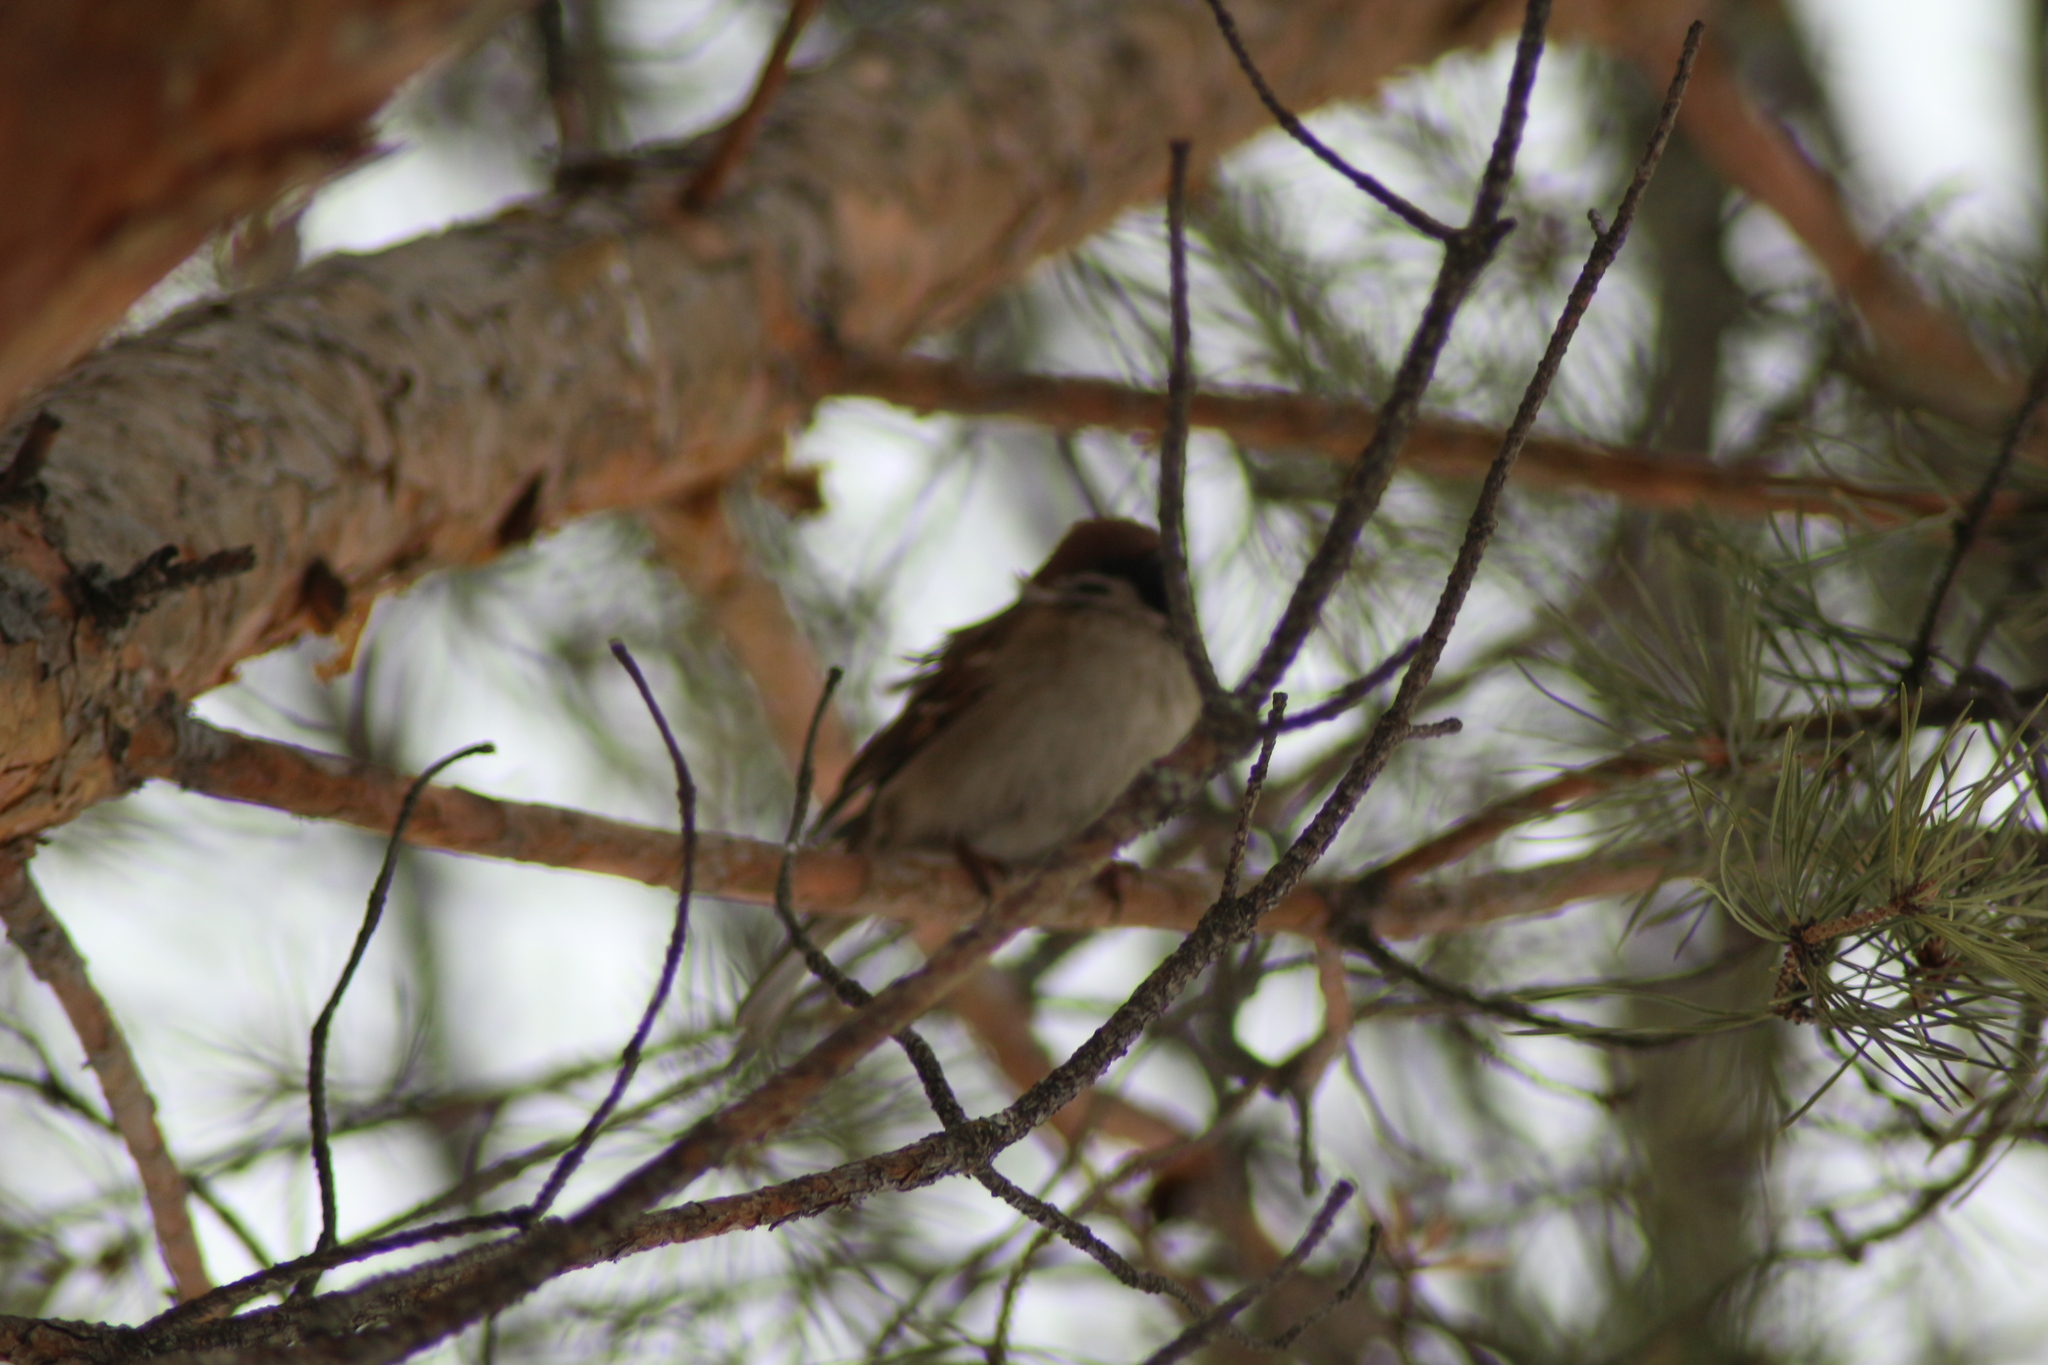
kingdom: Animalia
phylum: Chordata
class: Aves
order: Passeriformes
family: Passeridae
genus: Passer
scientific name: Passer montanus
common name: Eurasian tree sparrow
